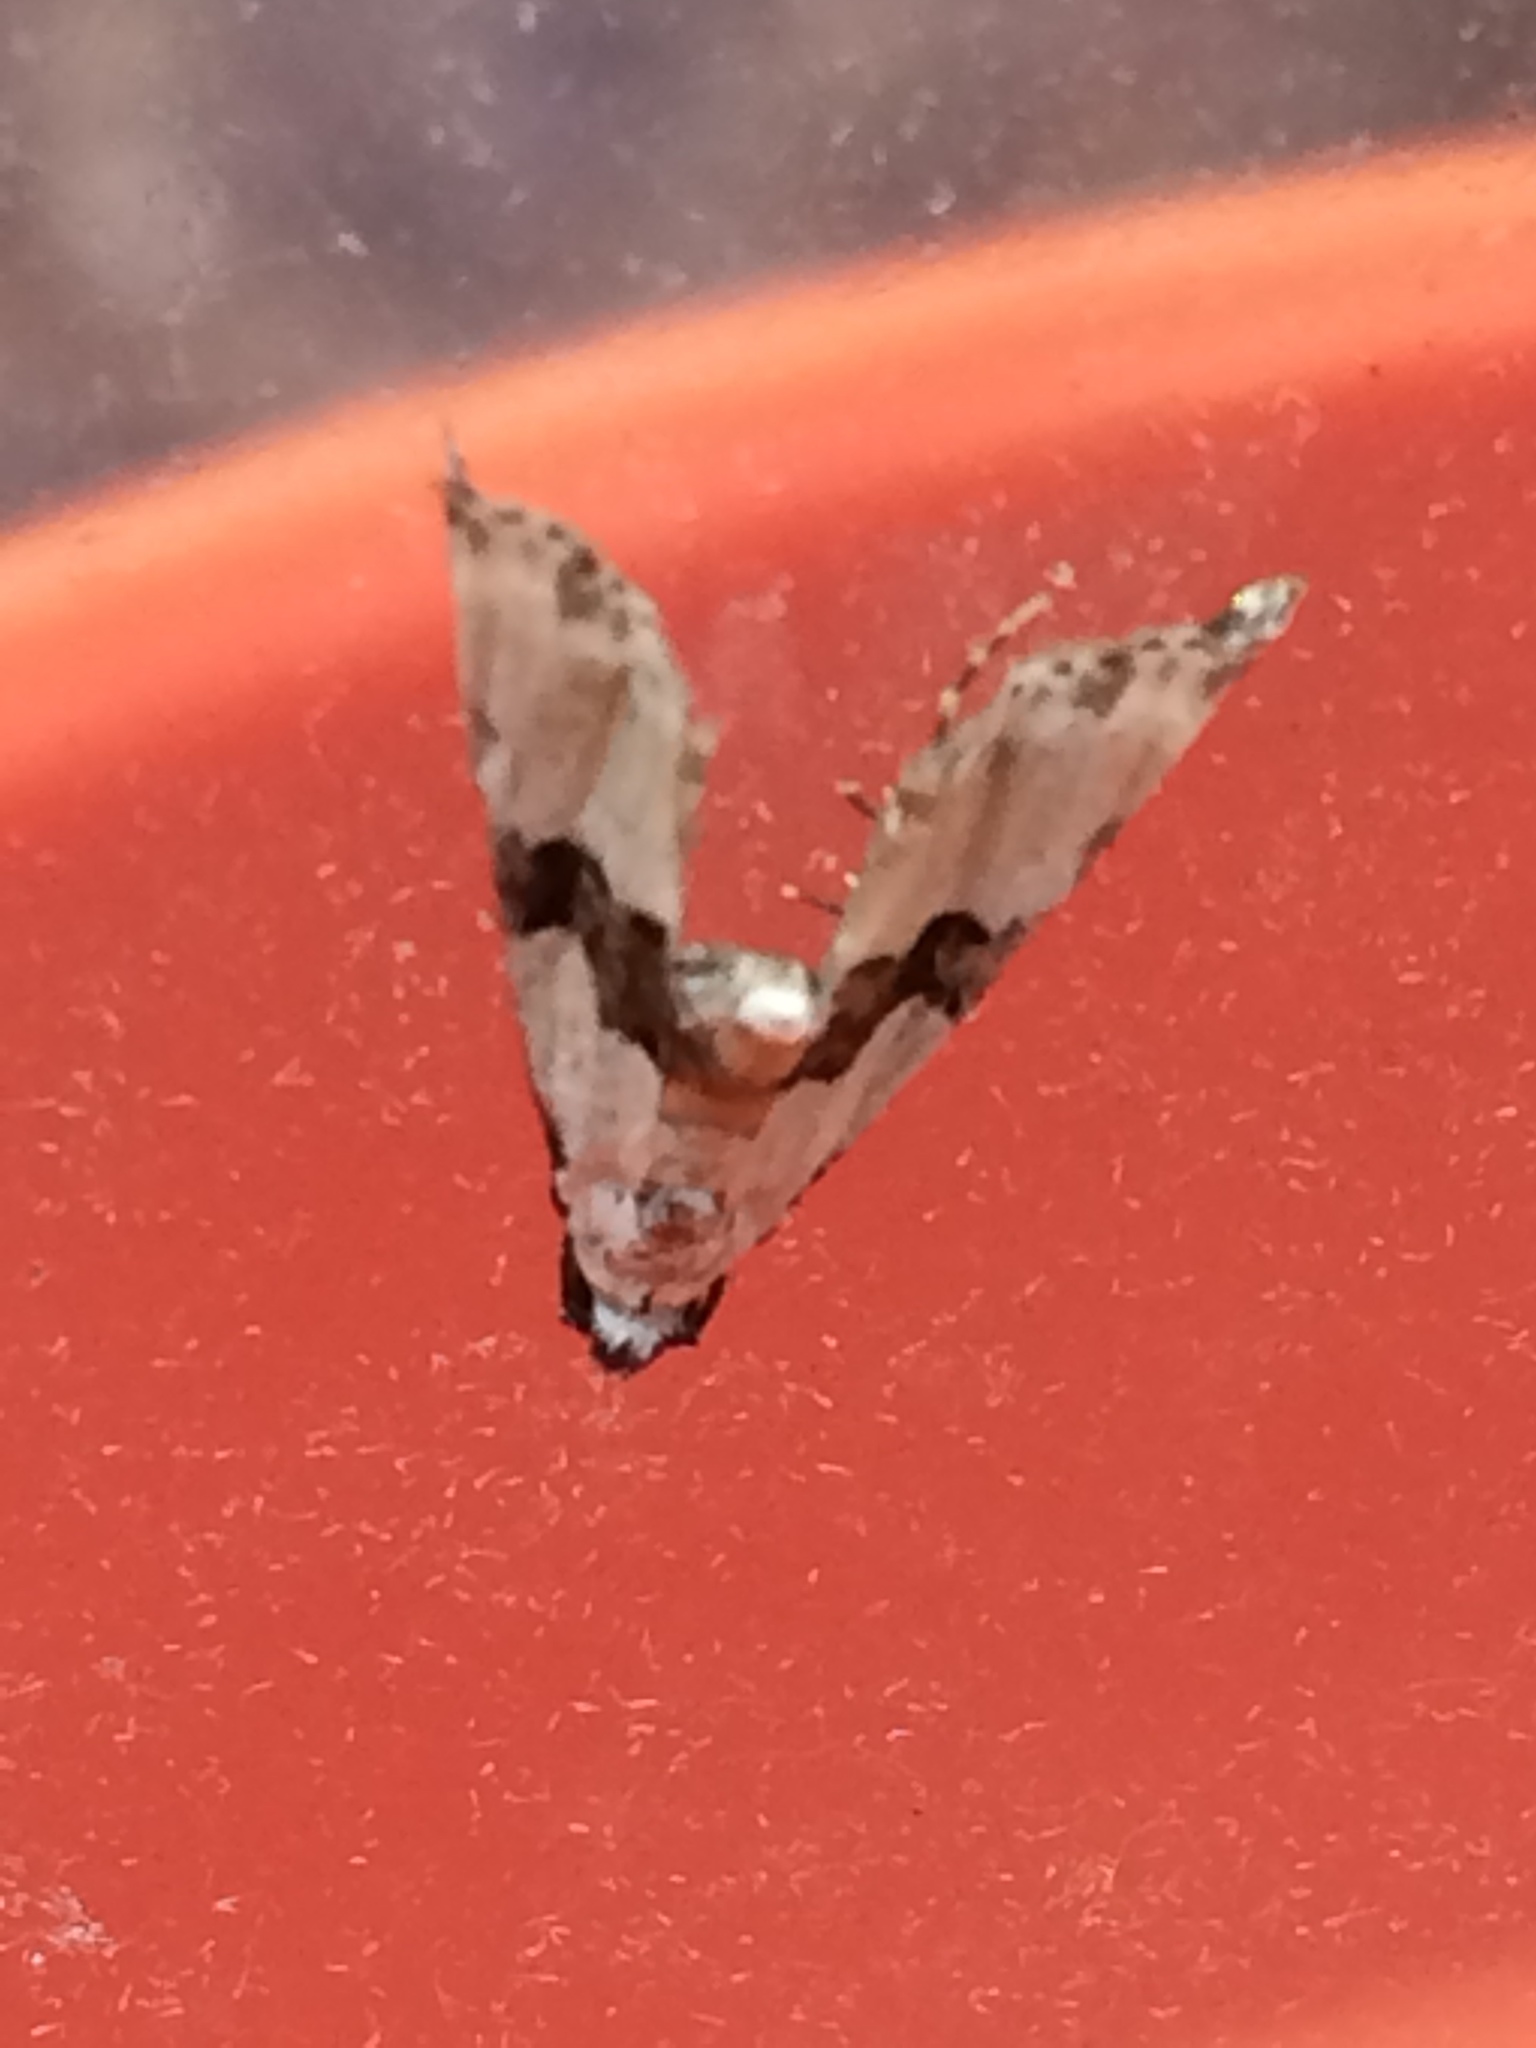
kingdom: Animalia
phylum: Arthropoda
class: Insecta
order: Lepidoptera
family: Noctuidae
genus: Nigetia
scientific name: Nigetia formosalis
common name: Thin-winged owlet
